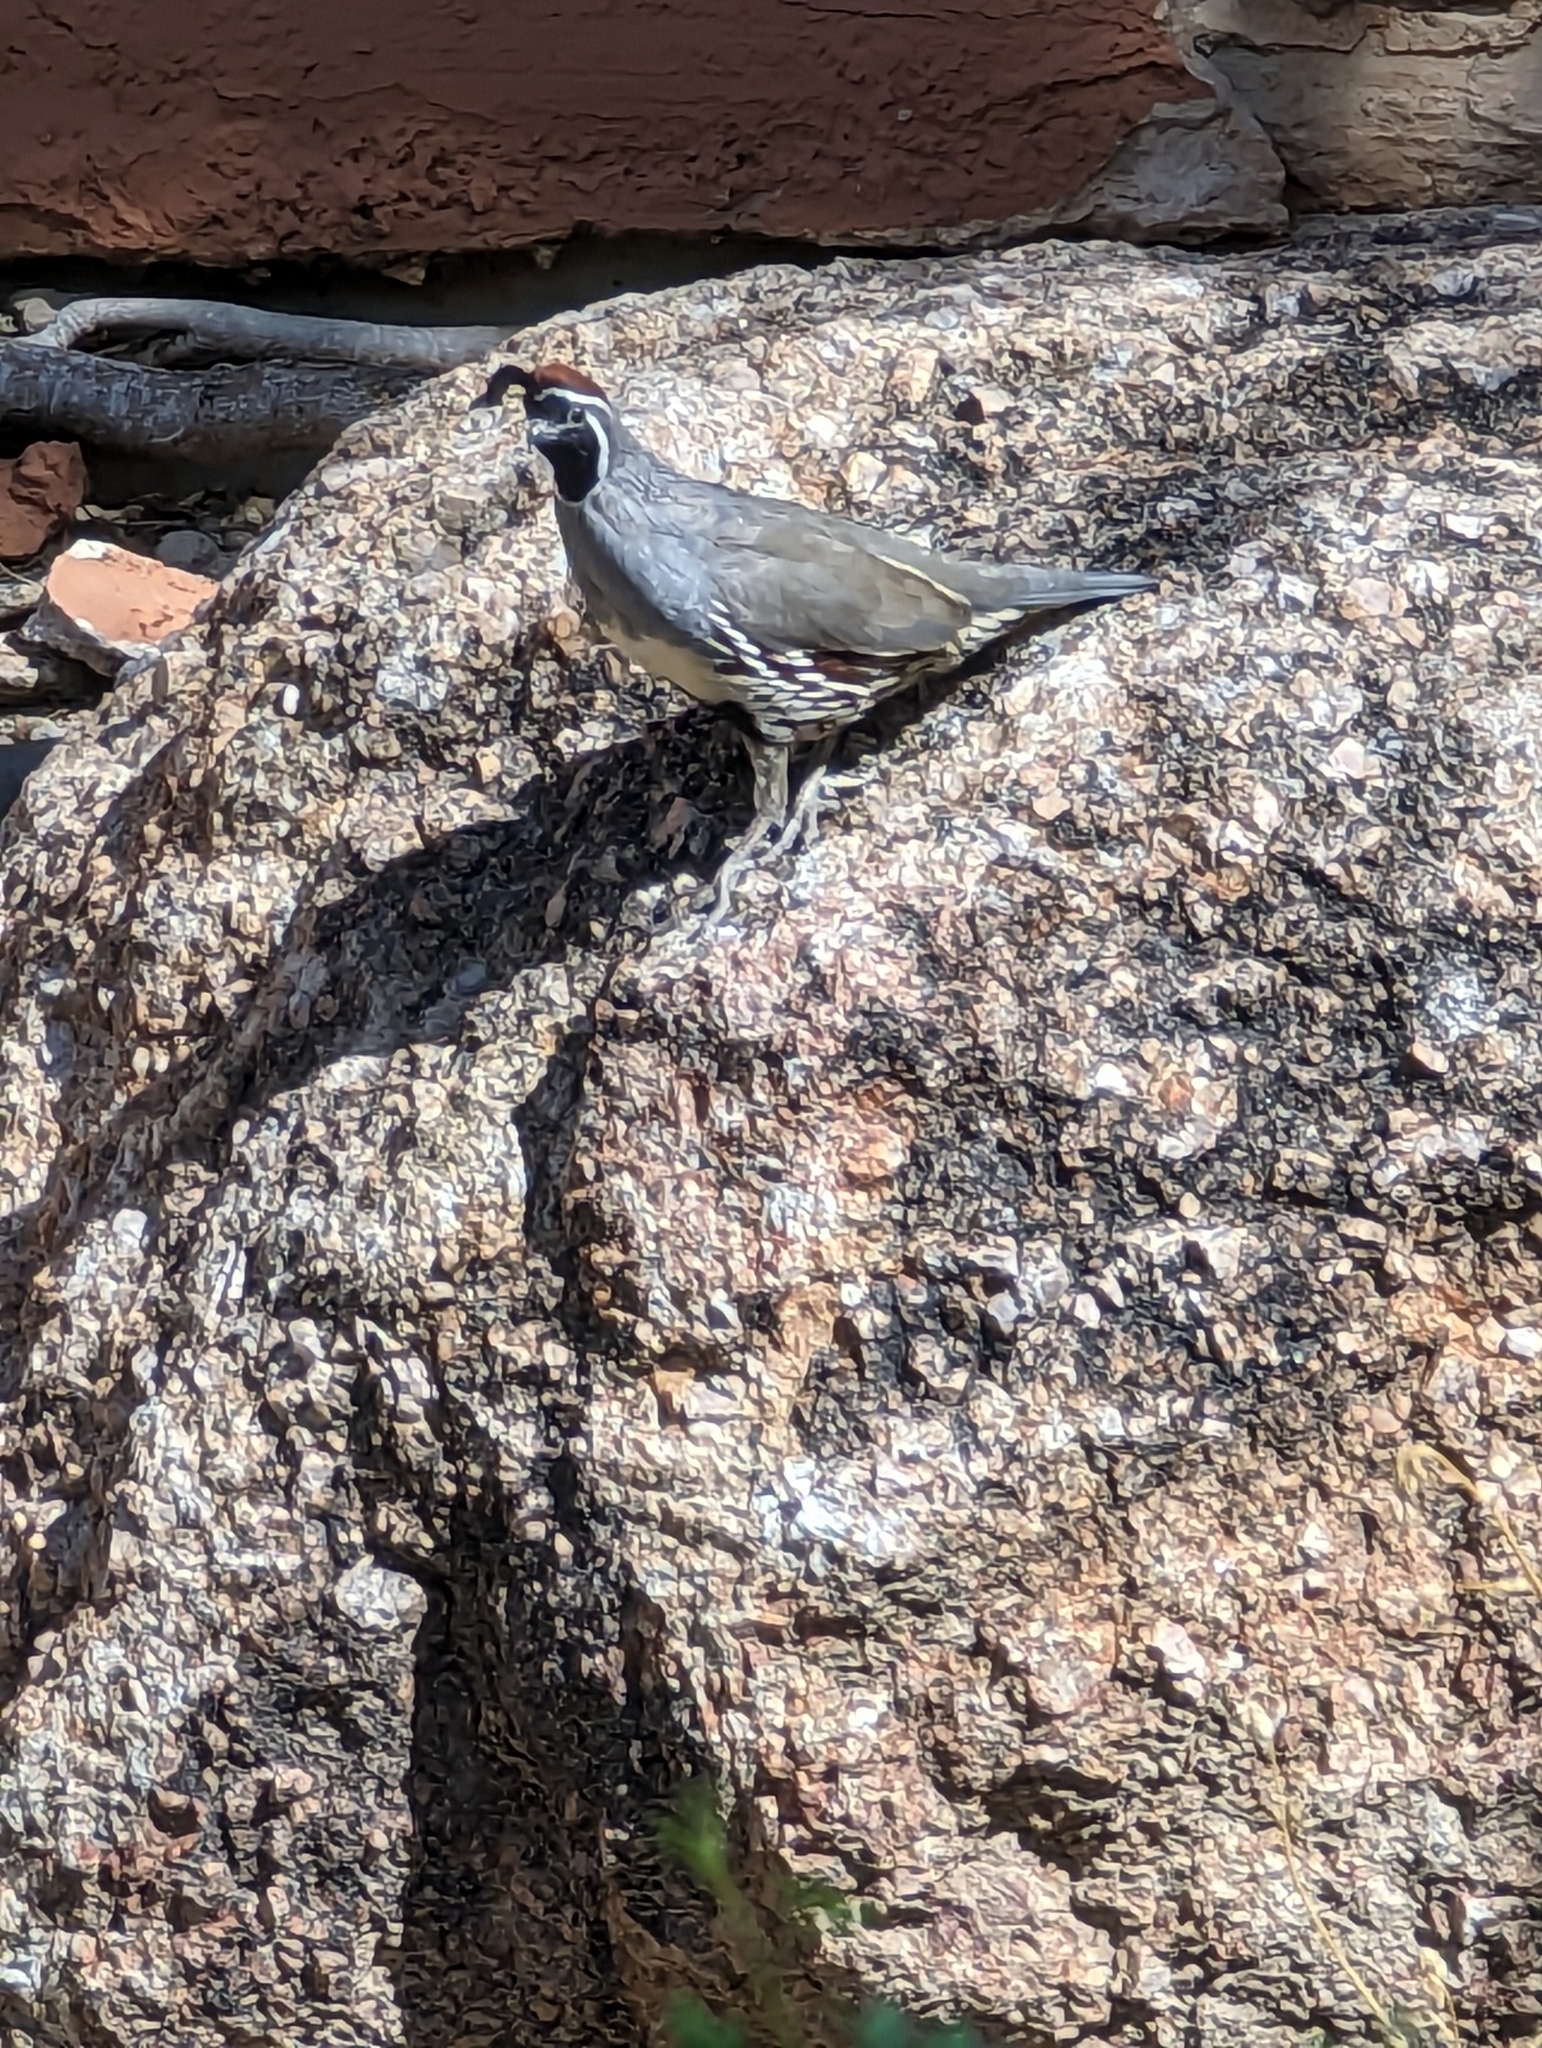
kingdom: Animalia
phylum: Chordata
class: Aves
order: Galliformes
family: Odontophoridae
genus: Callipepla
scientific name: Callipepla gambelii
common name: Gambel's quail
